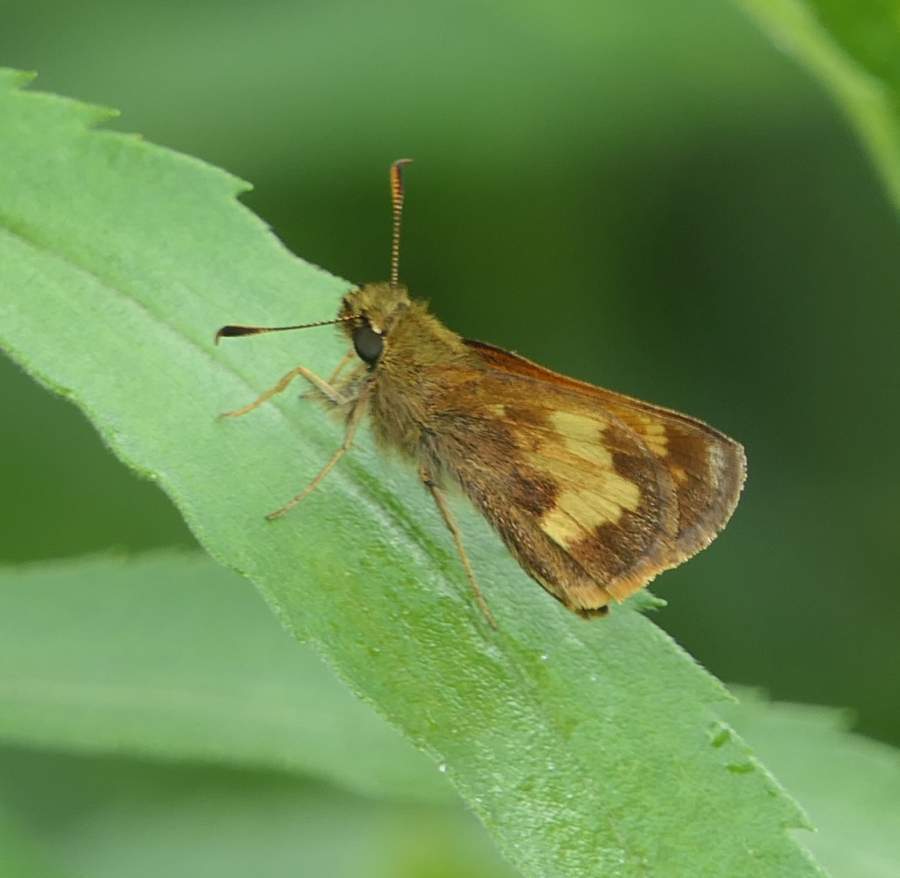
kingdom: Animalia
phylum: Arthropoda
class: Insecta
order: Lepidoptera
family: Hesperiidae
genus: Lon
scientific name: Lon hobomok
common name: Hobomok skipper
